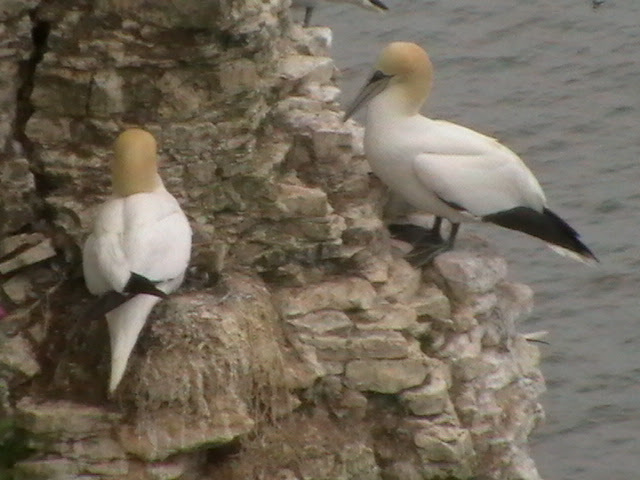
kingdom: Animalia
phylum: Chordata
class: Aves
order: Suliformes
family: Sulidae
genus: Morus
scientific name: Morus bassanus
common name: Northern gannet
